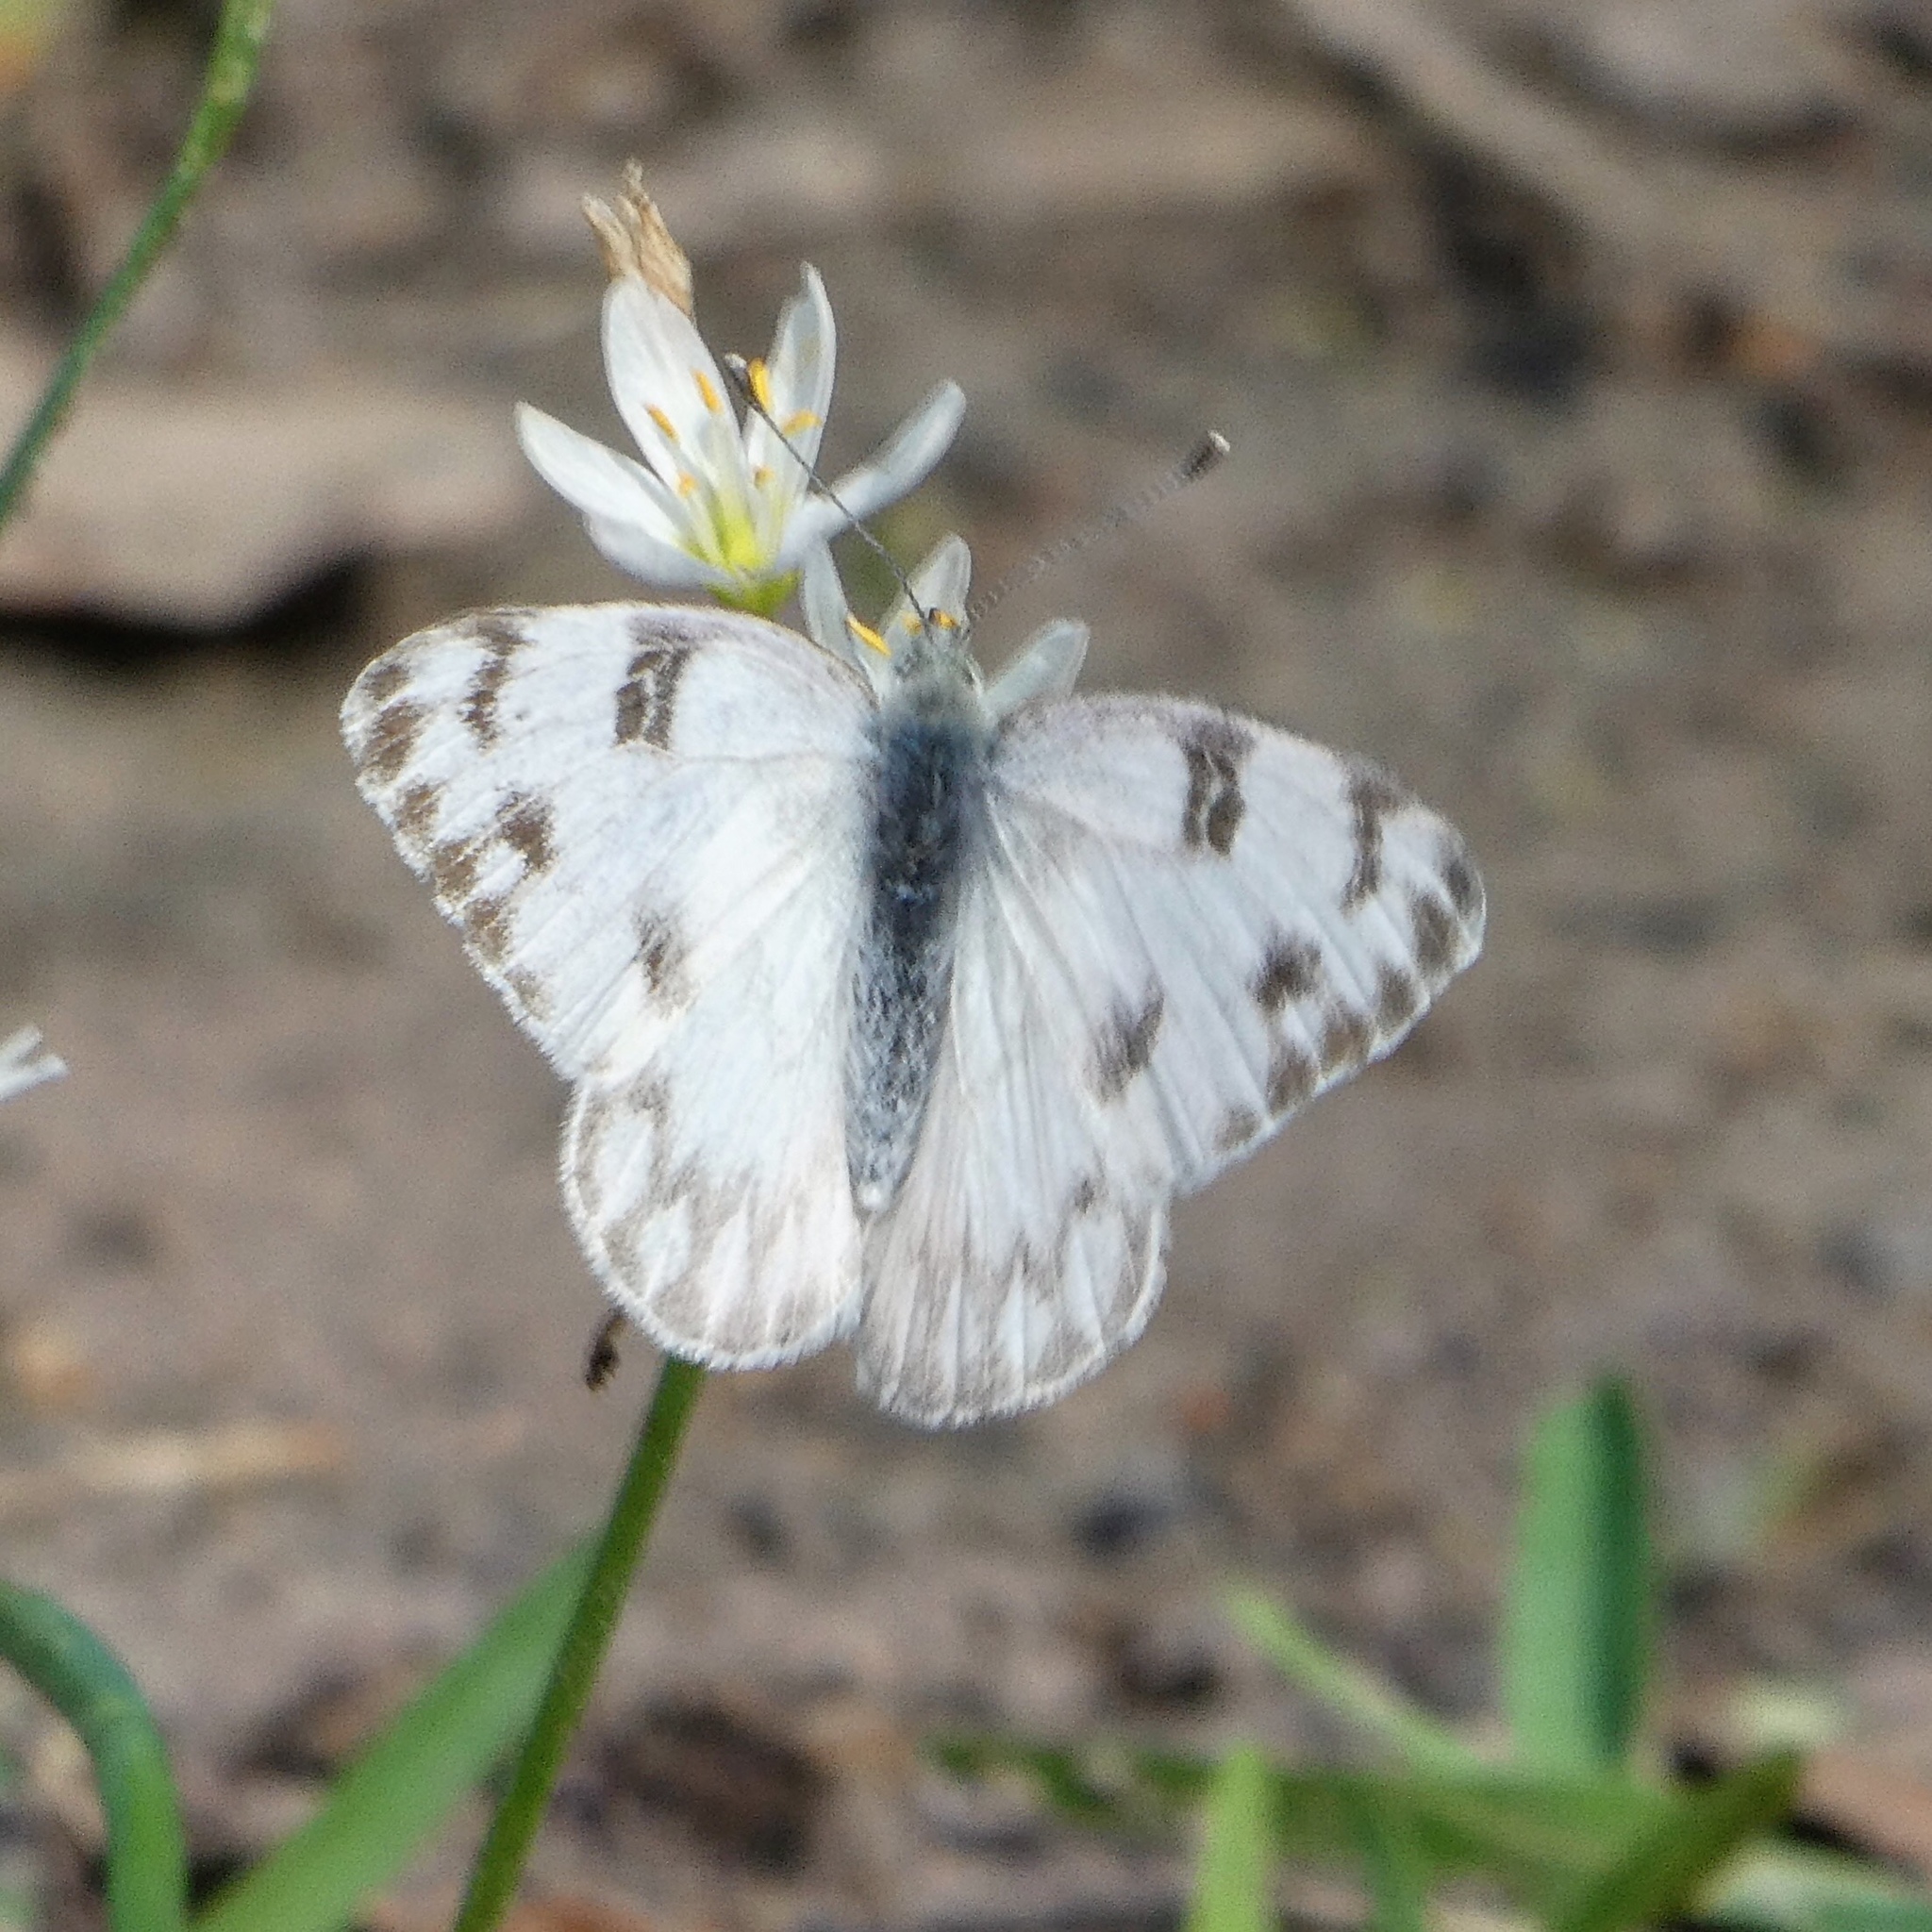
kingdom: Animalia
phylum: Arthropoda
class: Insecta
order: Lepidoptera
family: Pieridae
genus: Pontia
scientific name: Pontia protodice
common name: Checkered white
